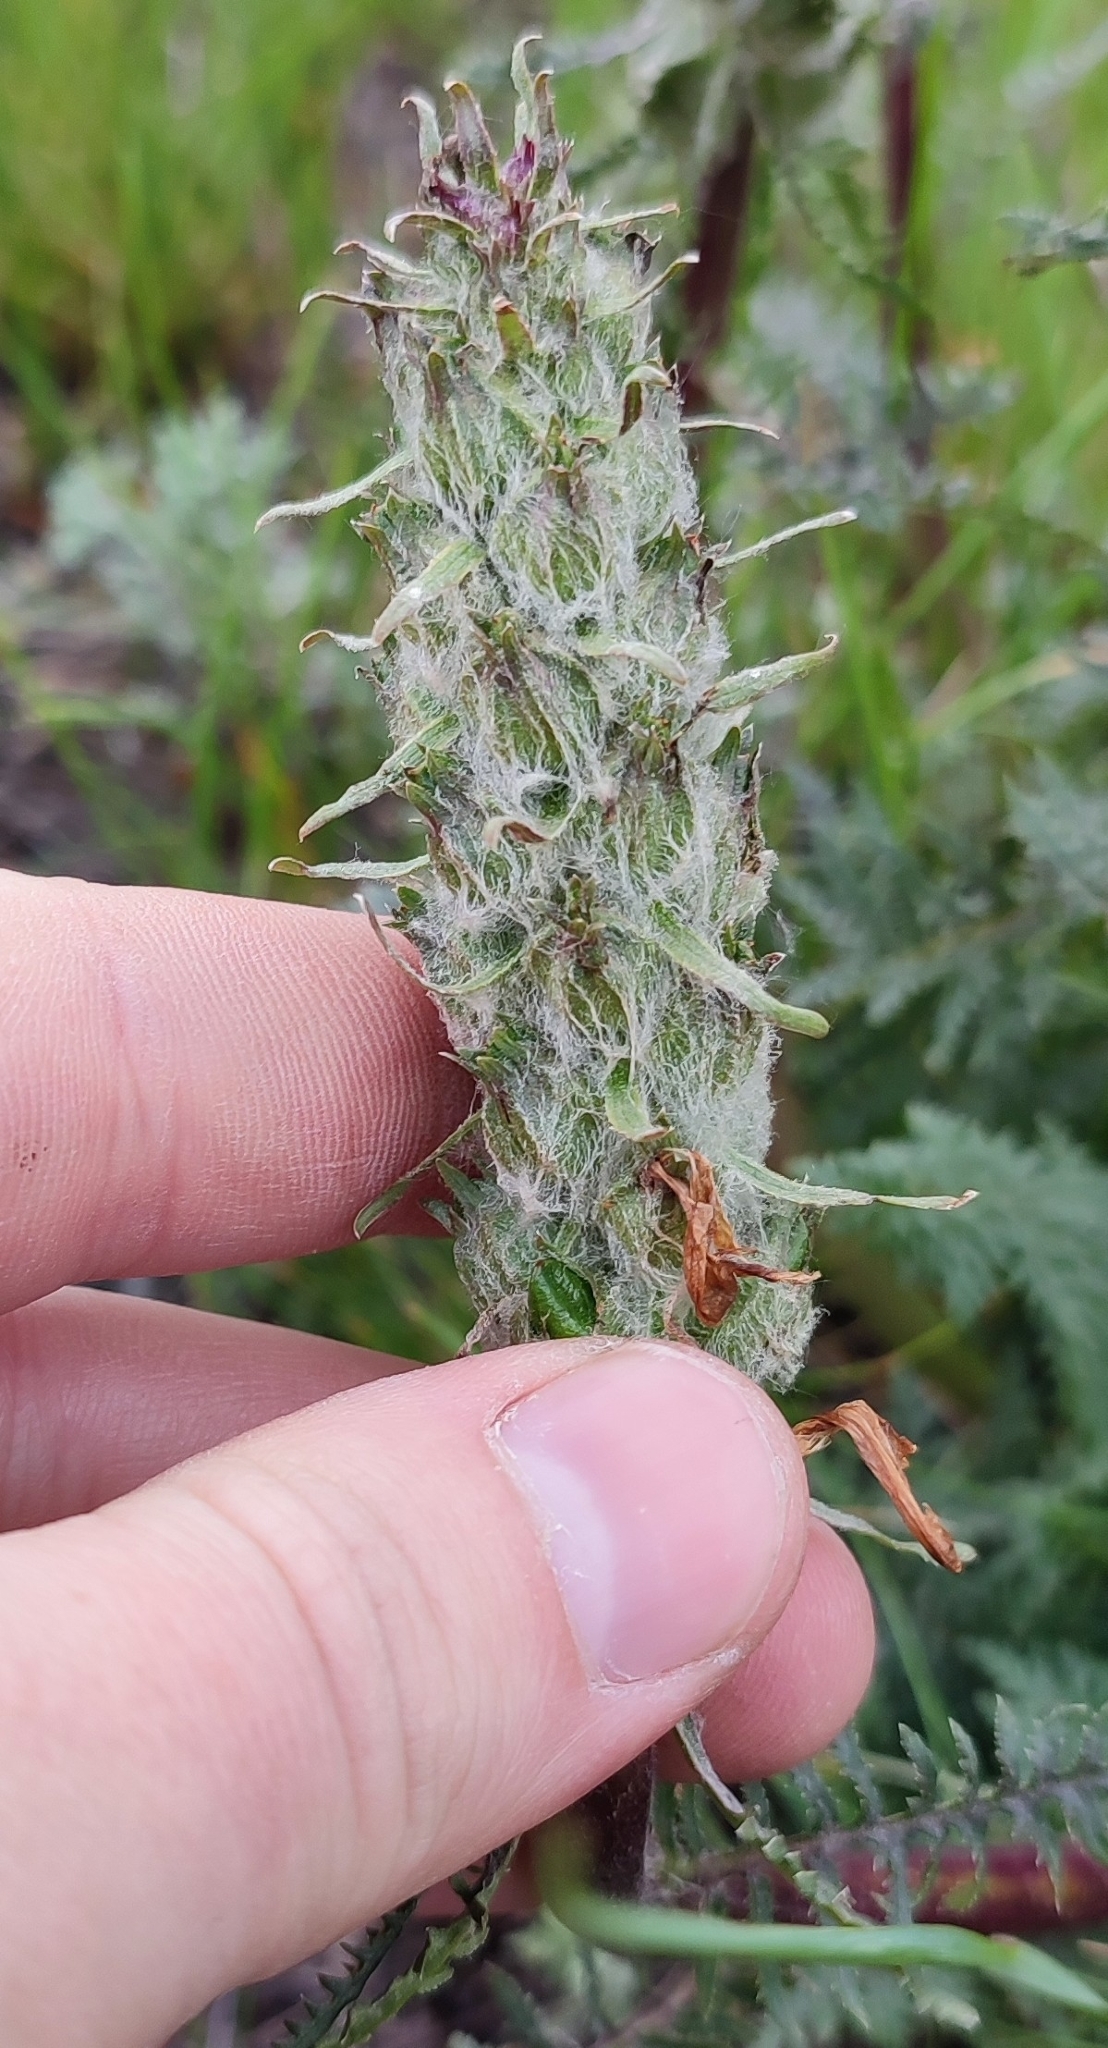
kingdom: Plantae
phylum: Tracheophyta
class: Magnoliopsida
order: Lamiales
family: Orobanchaceae
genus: Pedicularis
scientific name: Pedicularis dasystachys
